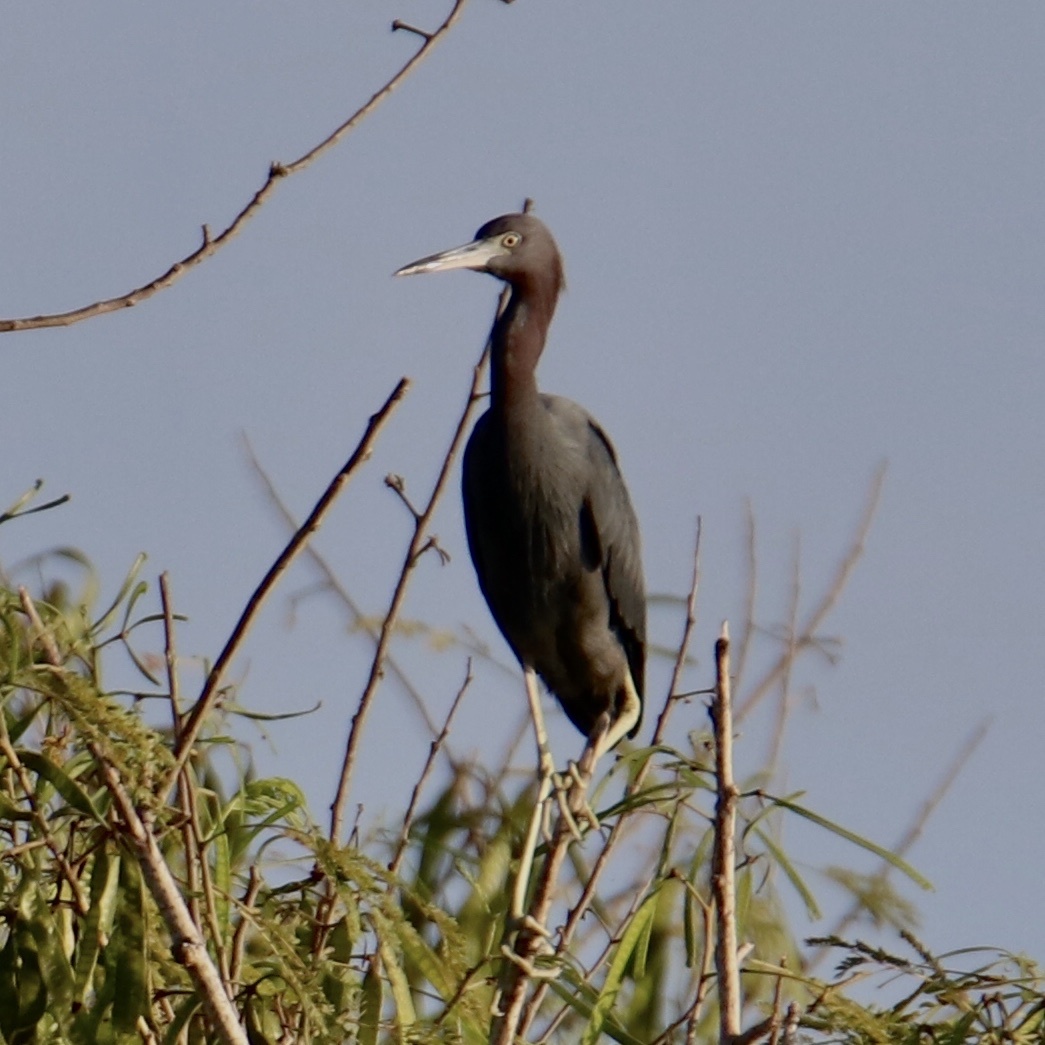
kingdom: Animalia
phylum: Chordata
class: Aves
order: Pelecaniformes
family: Ardeidae
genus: Egretta
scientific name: Egretta caerulea
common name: Little blue heron
